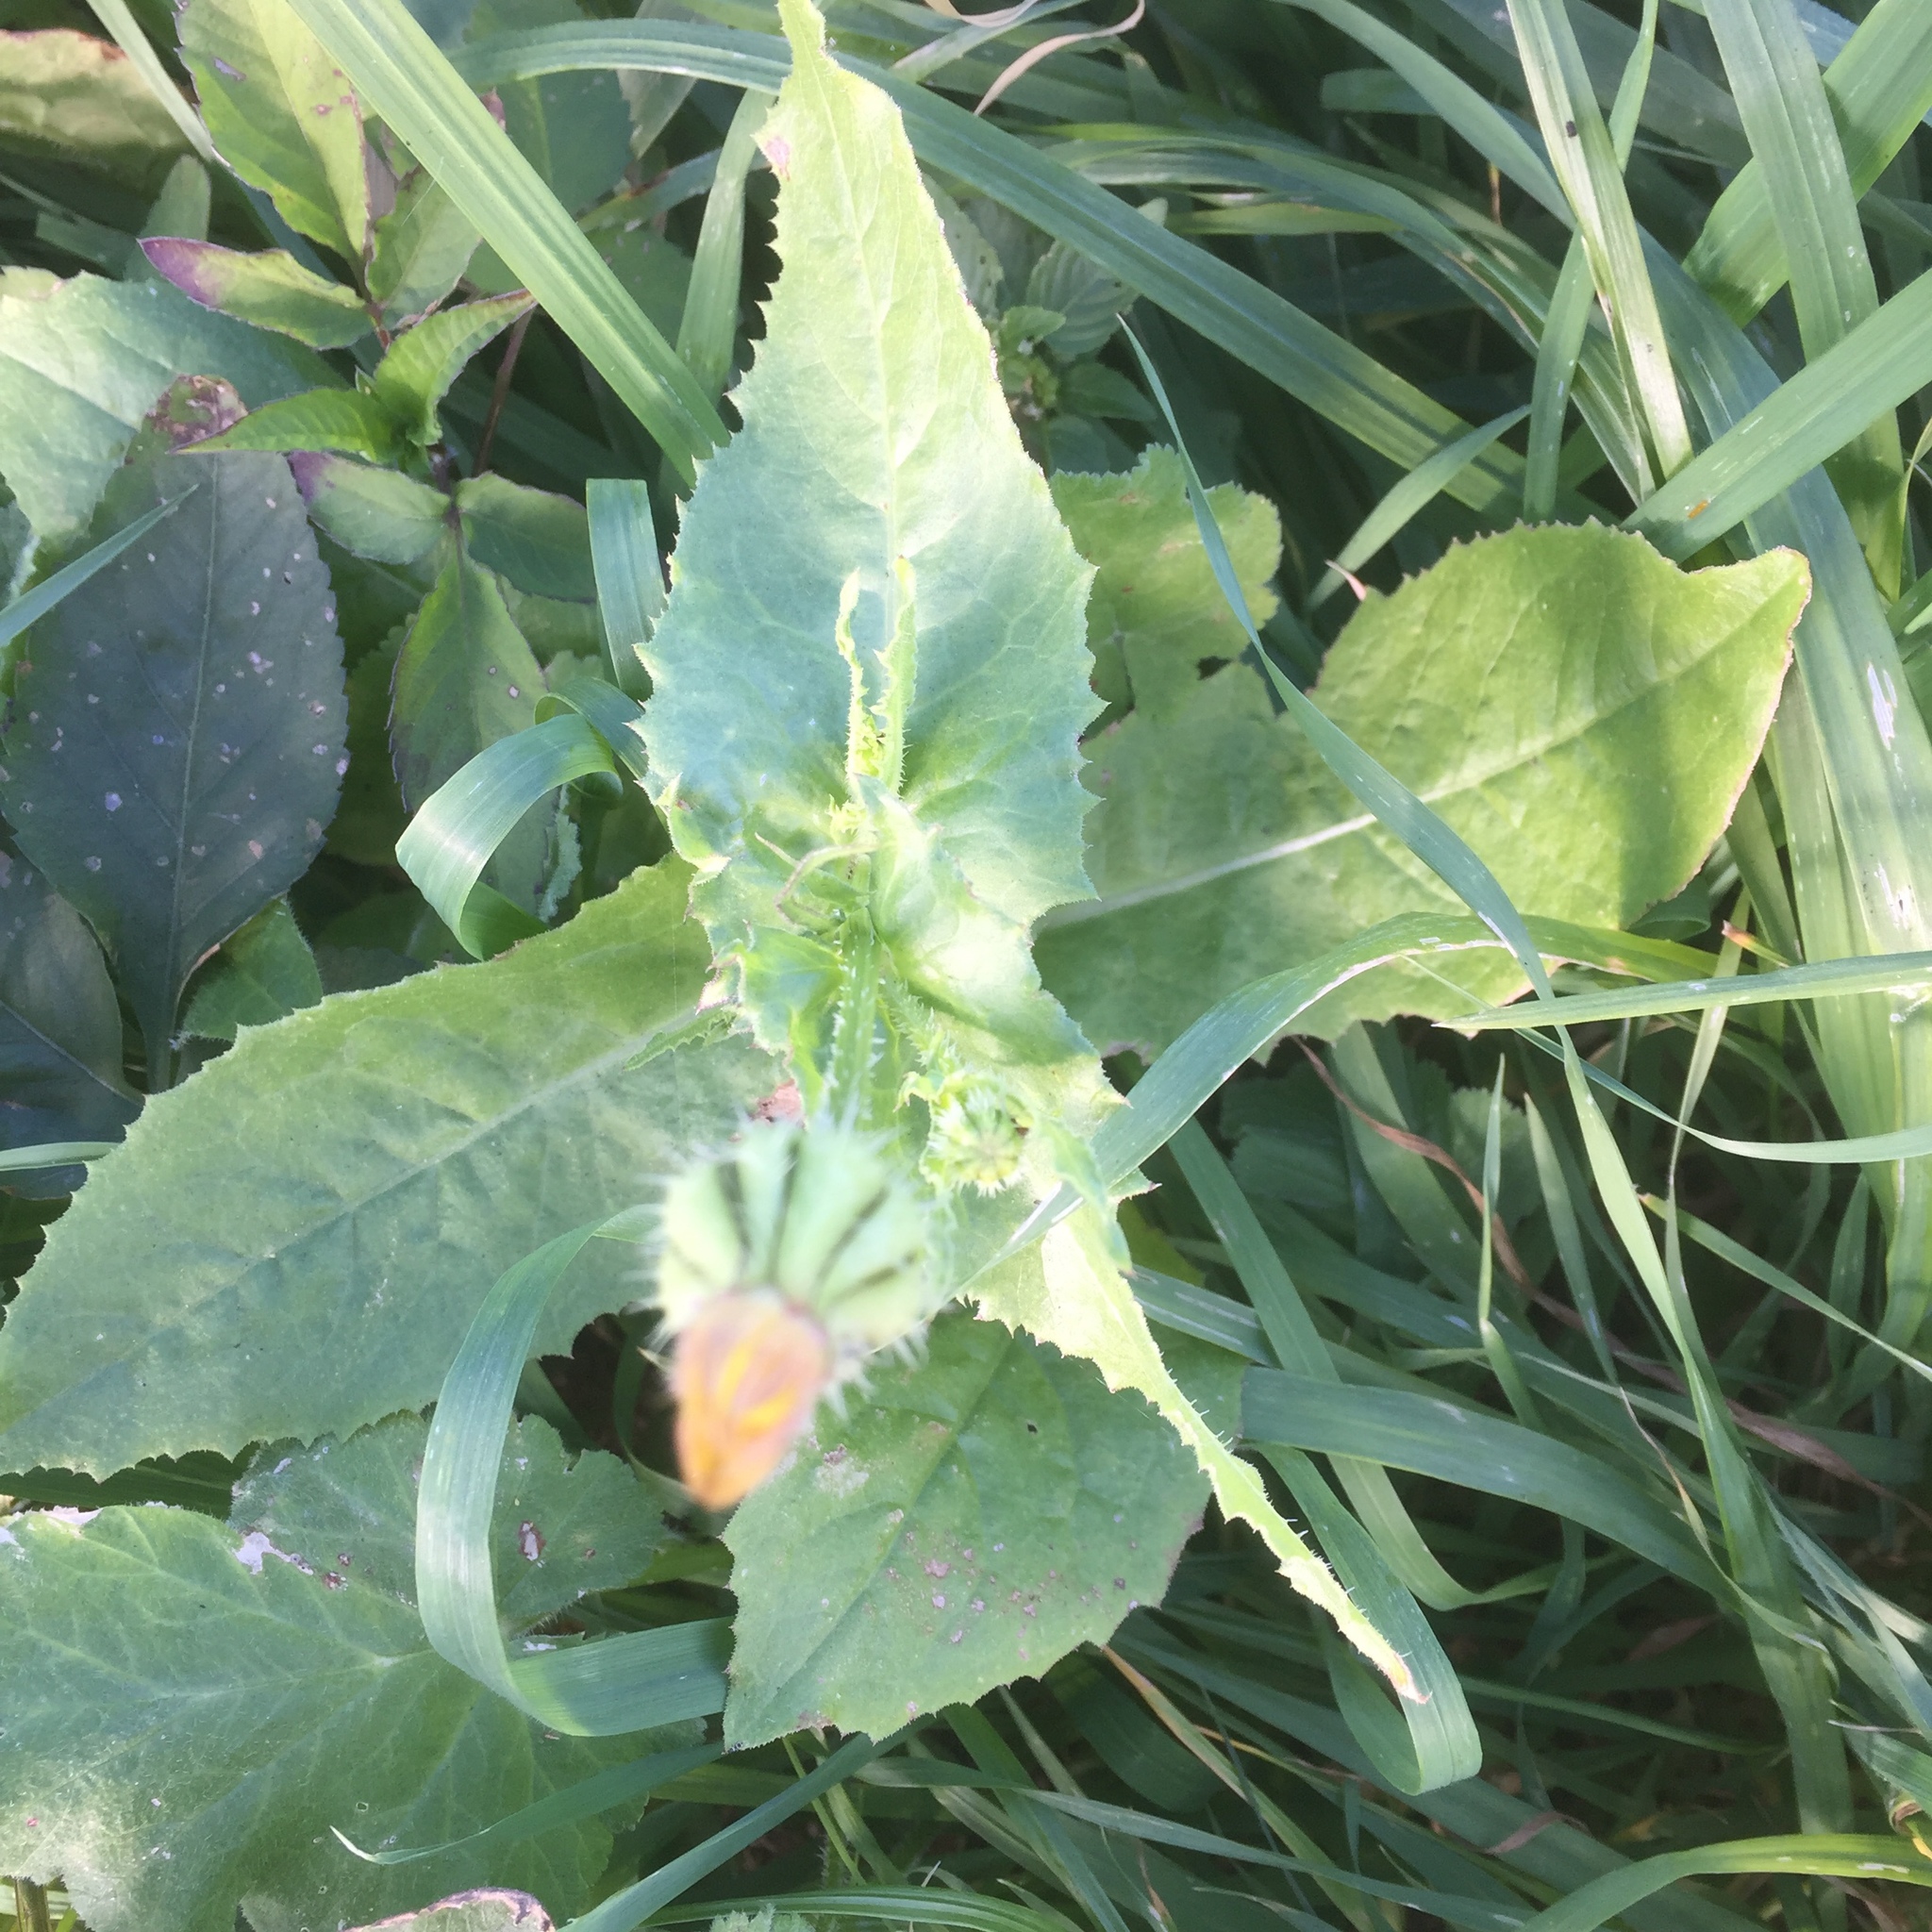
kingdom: Plantae
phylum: Tracheophyta
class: Magnoliopsida
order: Asterales
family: Asteraceae
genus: Urospermum
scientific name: Urospermum picroides
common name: False hawkbit
